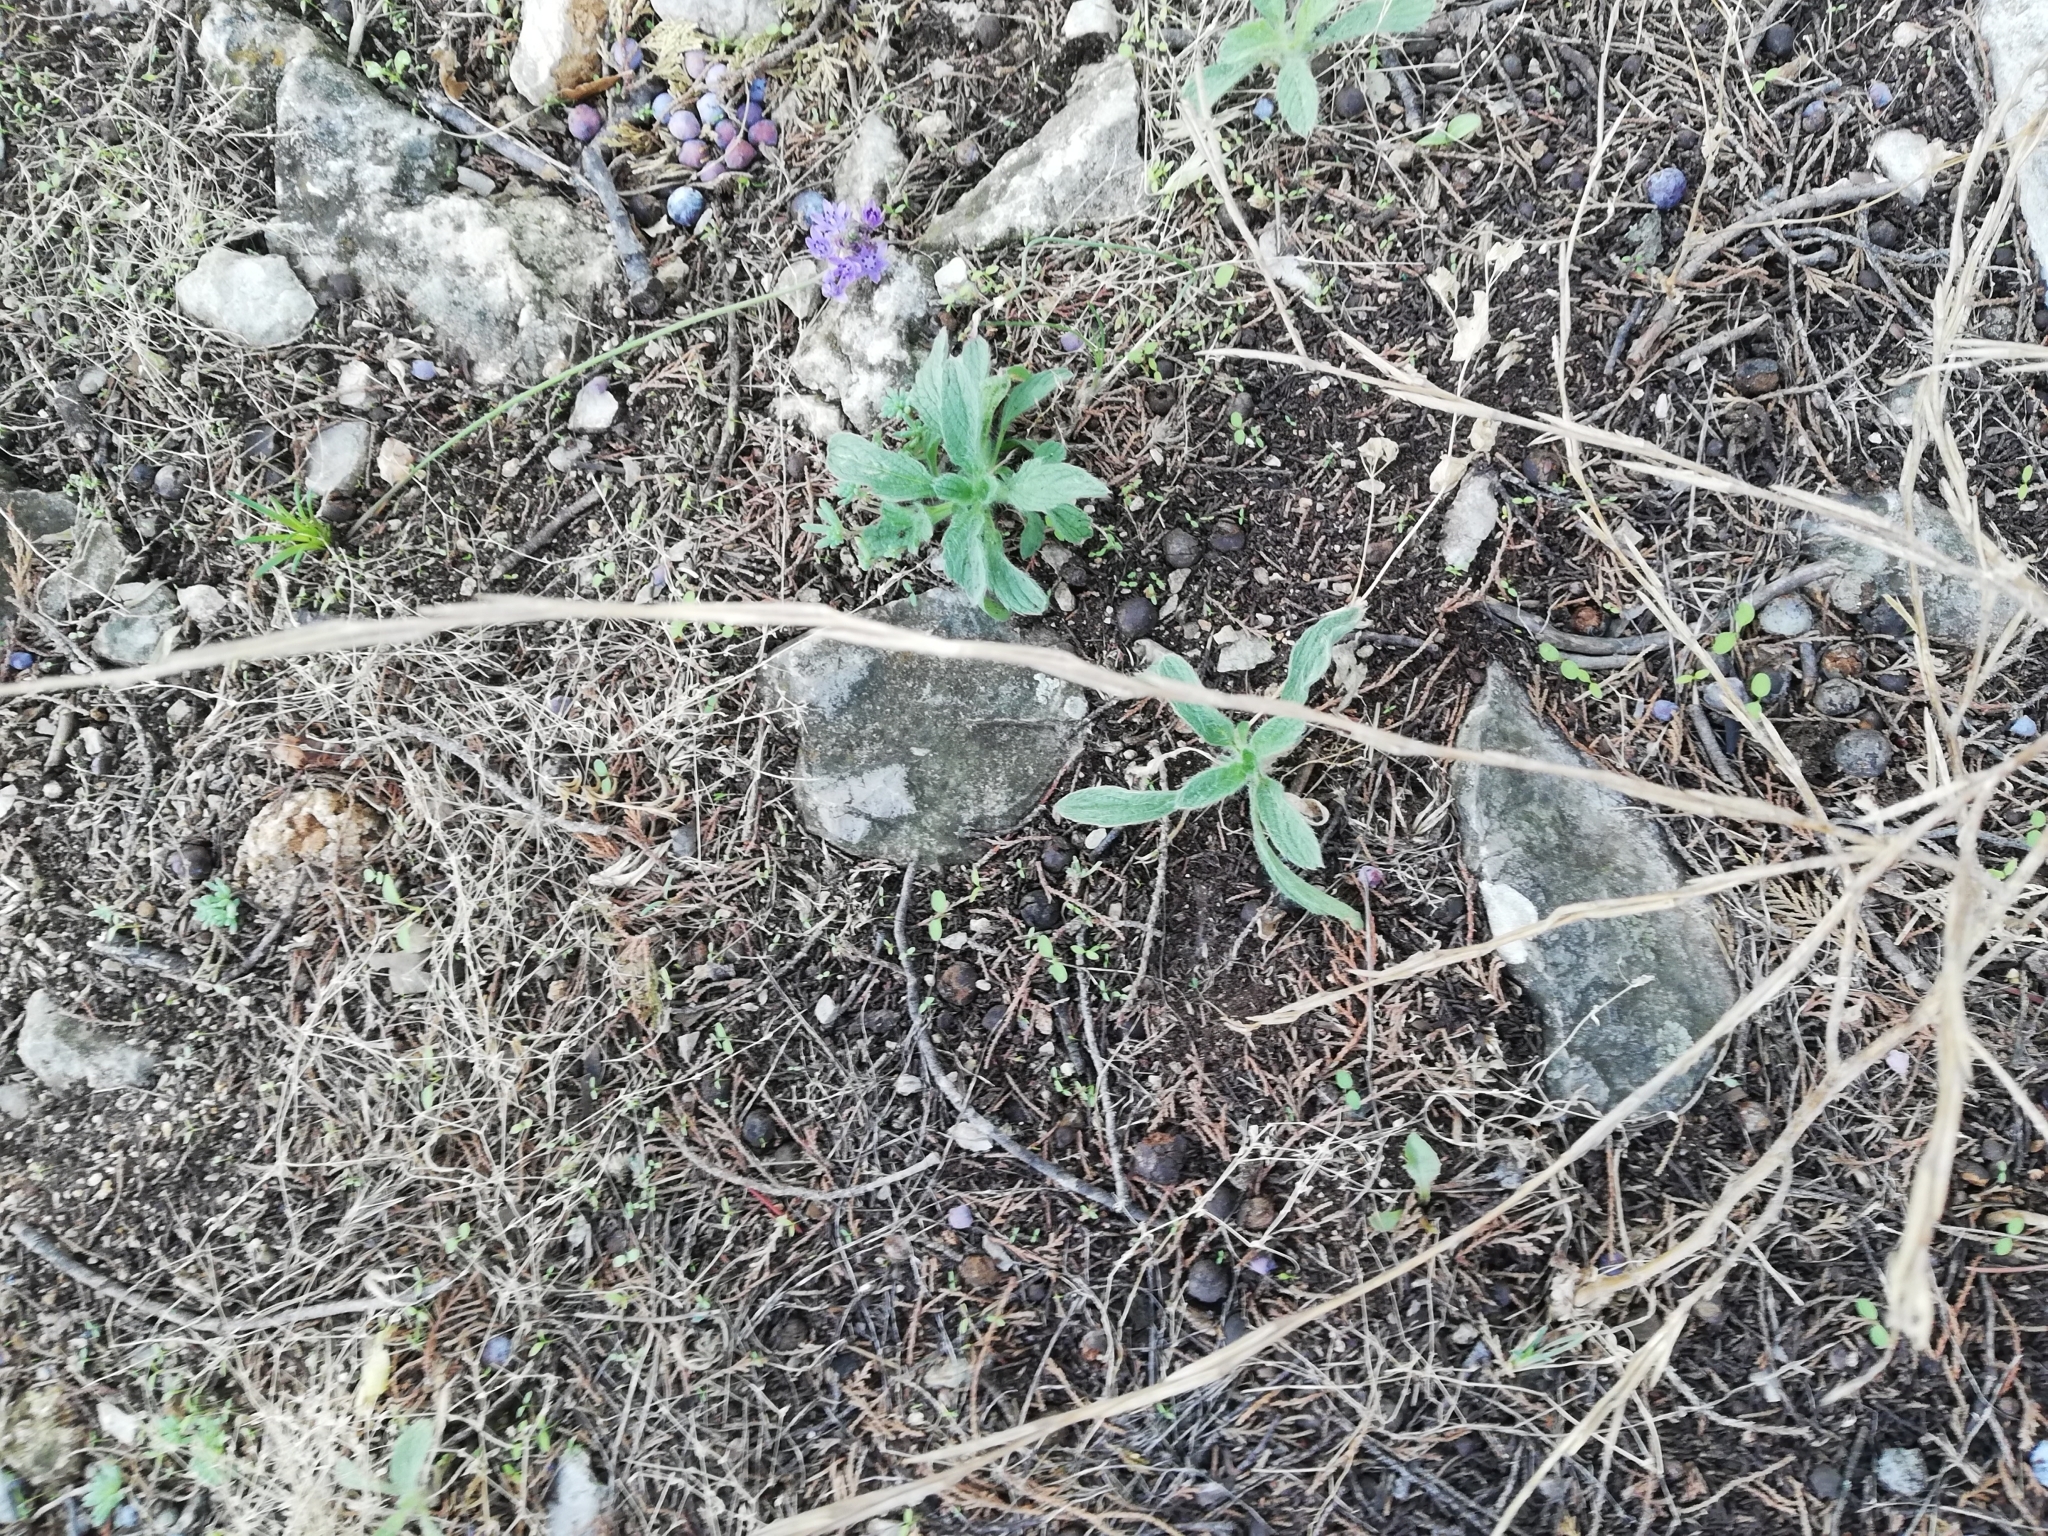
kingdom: Plantae
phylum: Tracheophyta
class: Magnoliopsida
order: Brassicales
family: Brassicaceae
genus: Sisymbrium
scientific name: Sisymbrium officinale
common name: Hedge mustard
